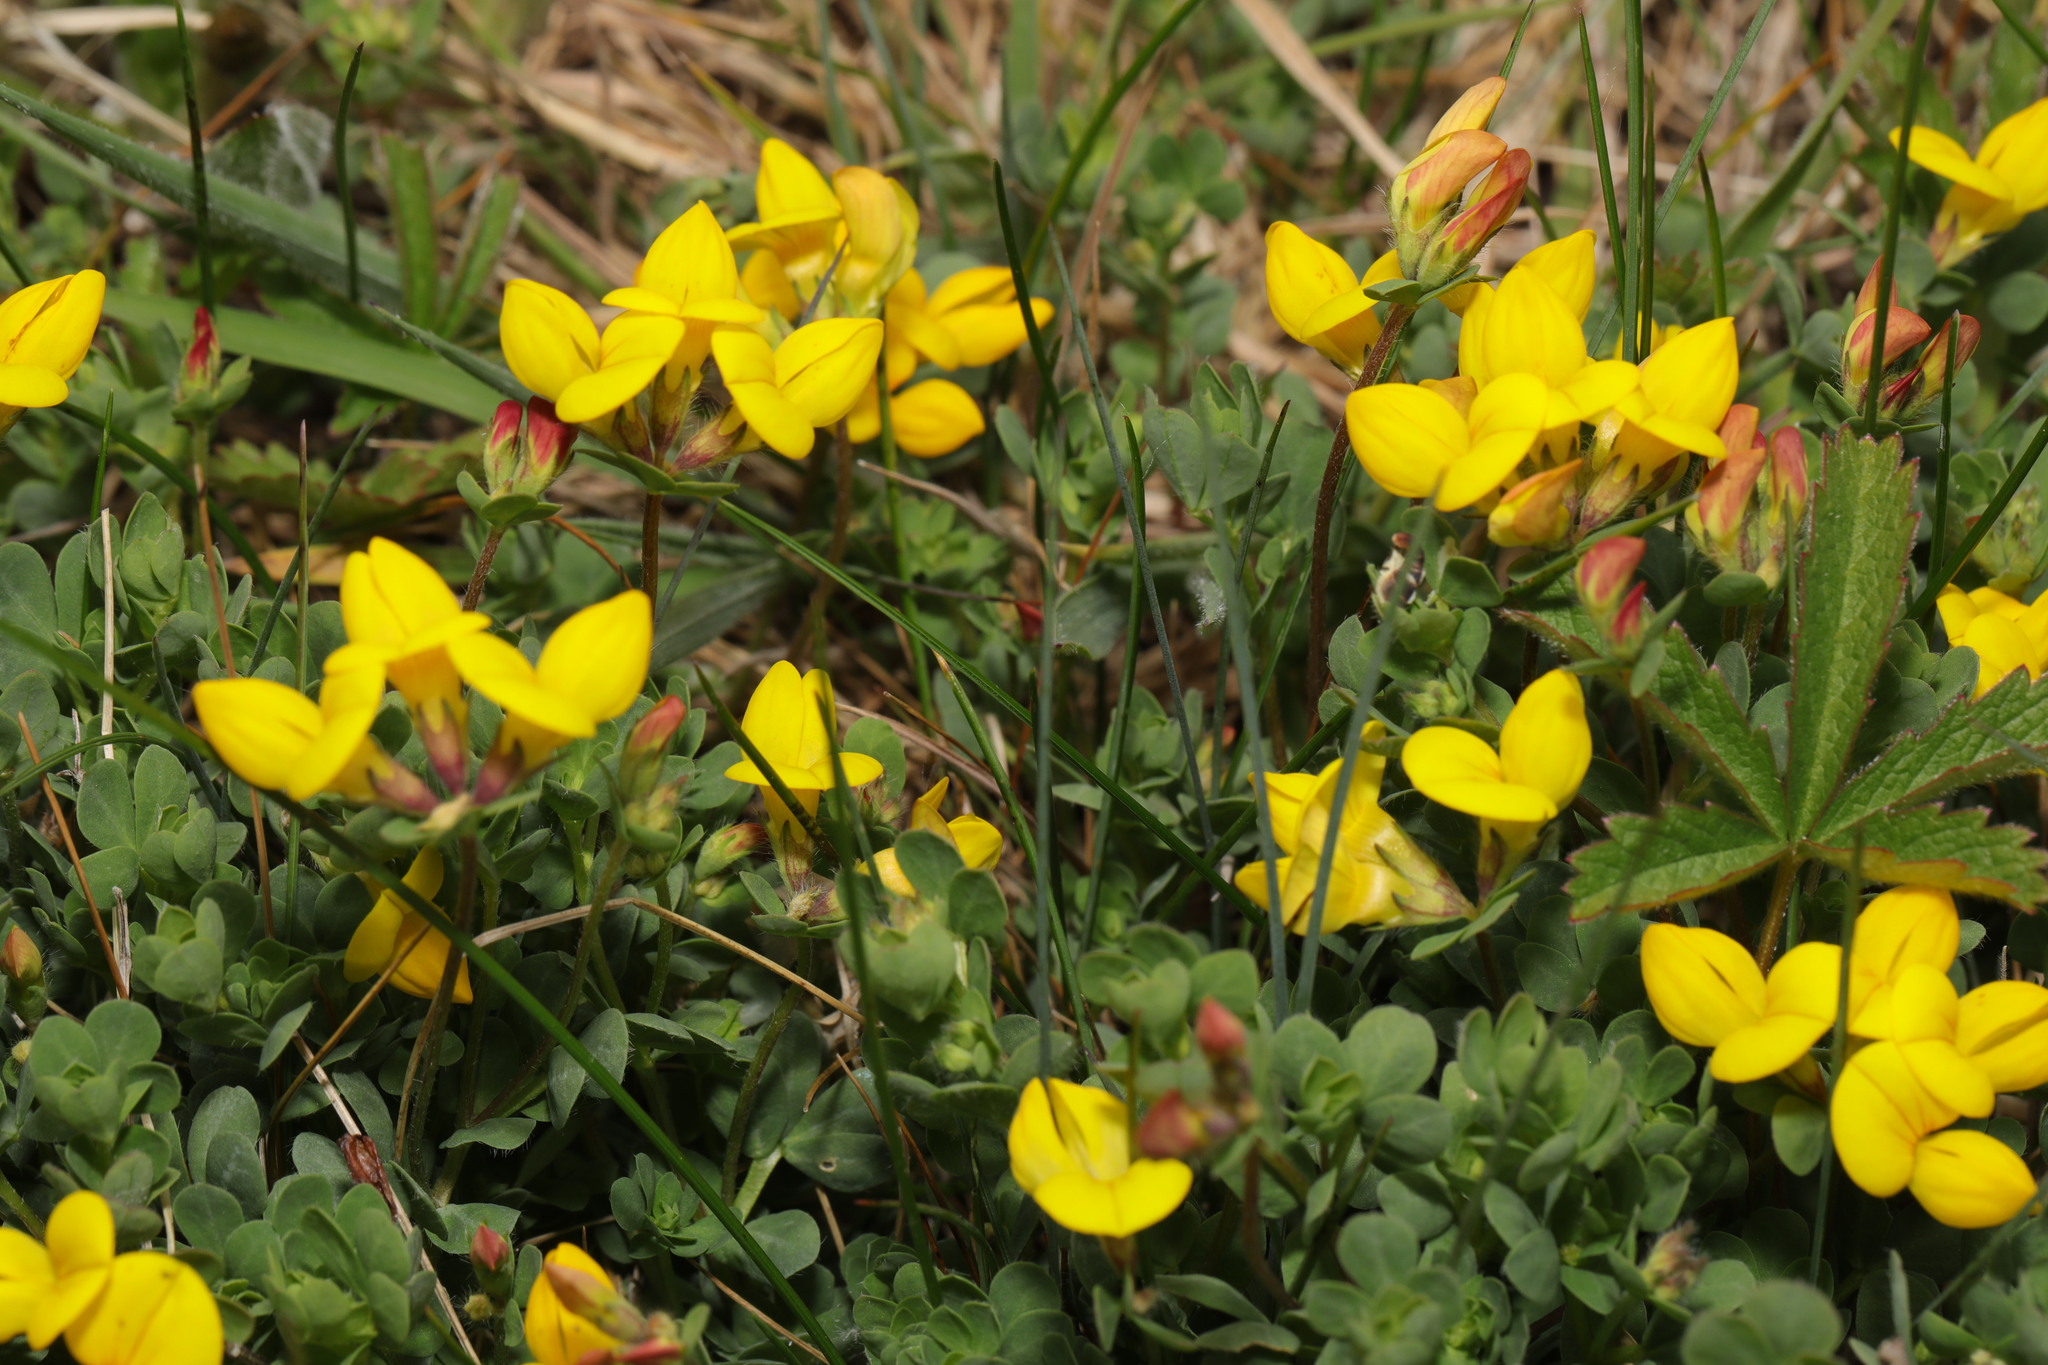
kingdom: Plantae
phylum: Tracheophyta
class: Magnoliopsida
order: Fabales
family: Fabaceae
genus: Lotus
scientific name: Lotus corniculatus
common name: Common bird's-foot-trefoil
